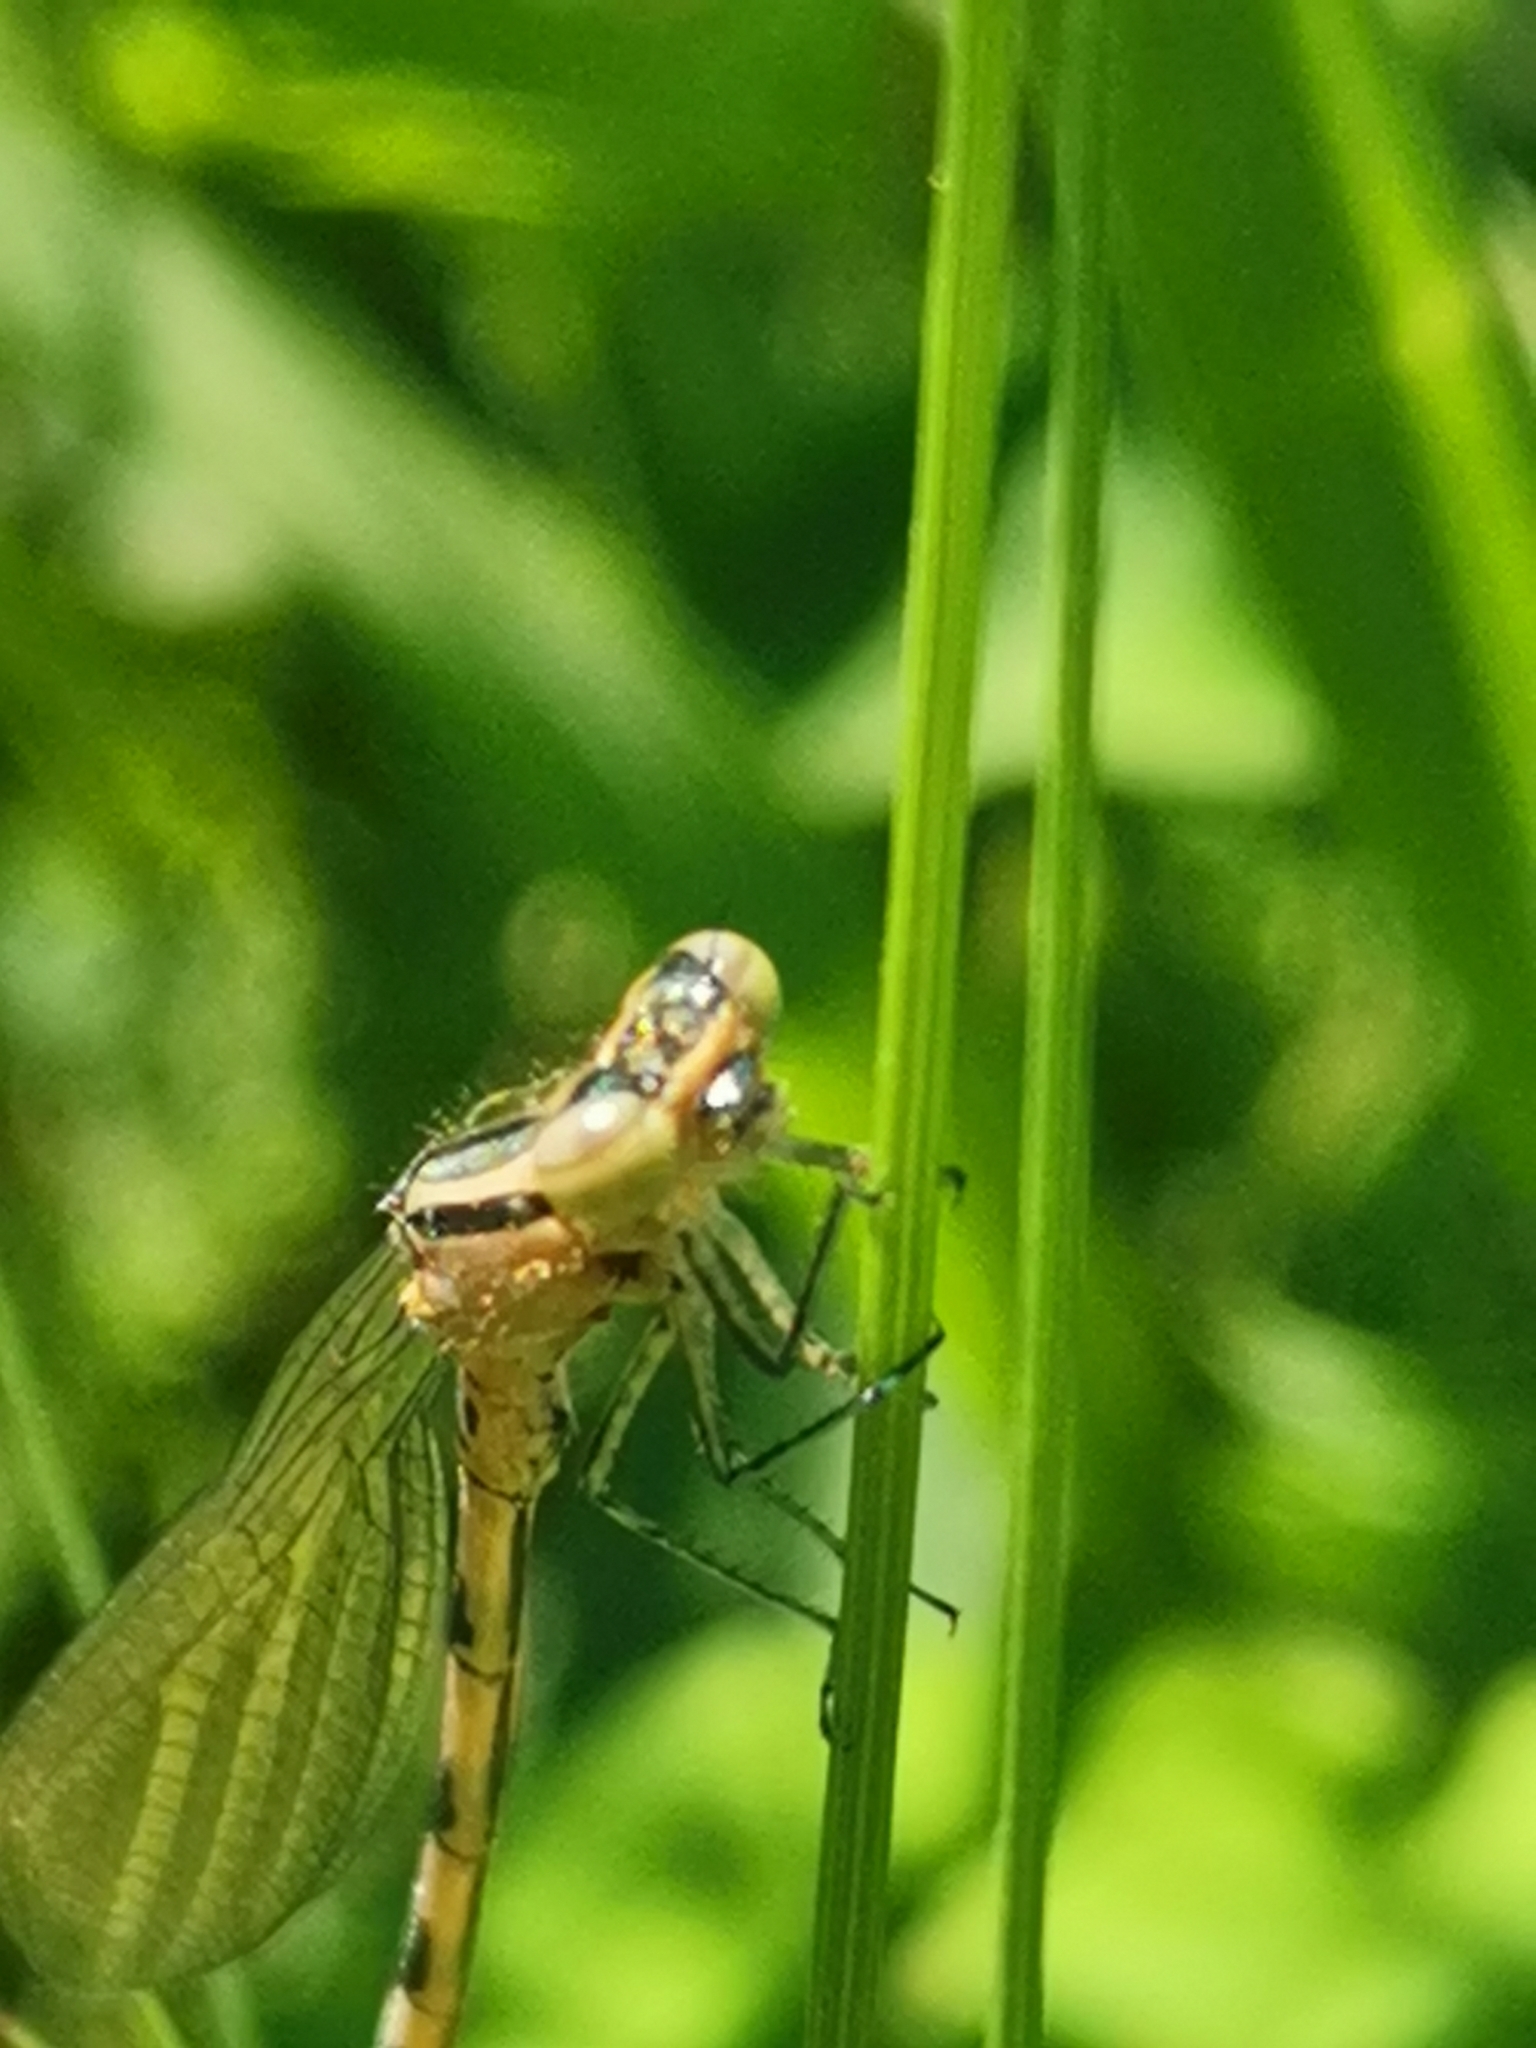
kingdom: Animalia
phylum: Arthropoda
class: Insecta
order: Odonata
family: Coenagrionidae
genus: Coenagrion
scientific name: Coenagrion hastulatum
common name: Spearhead bluet
